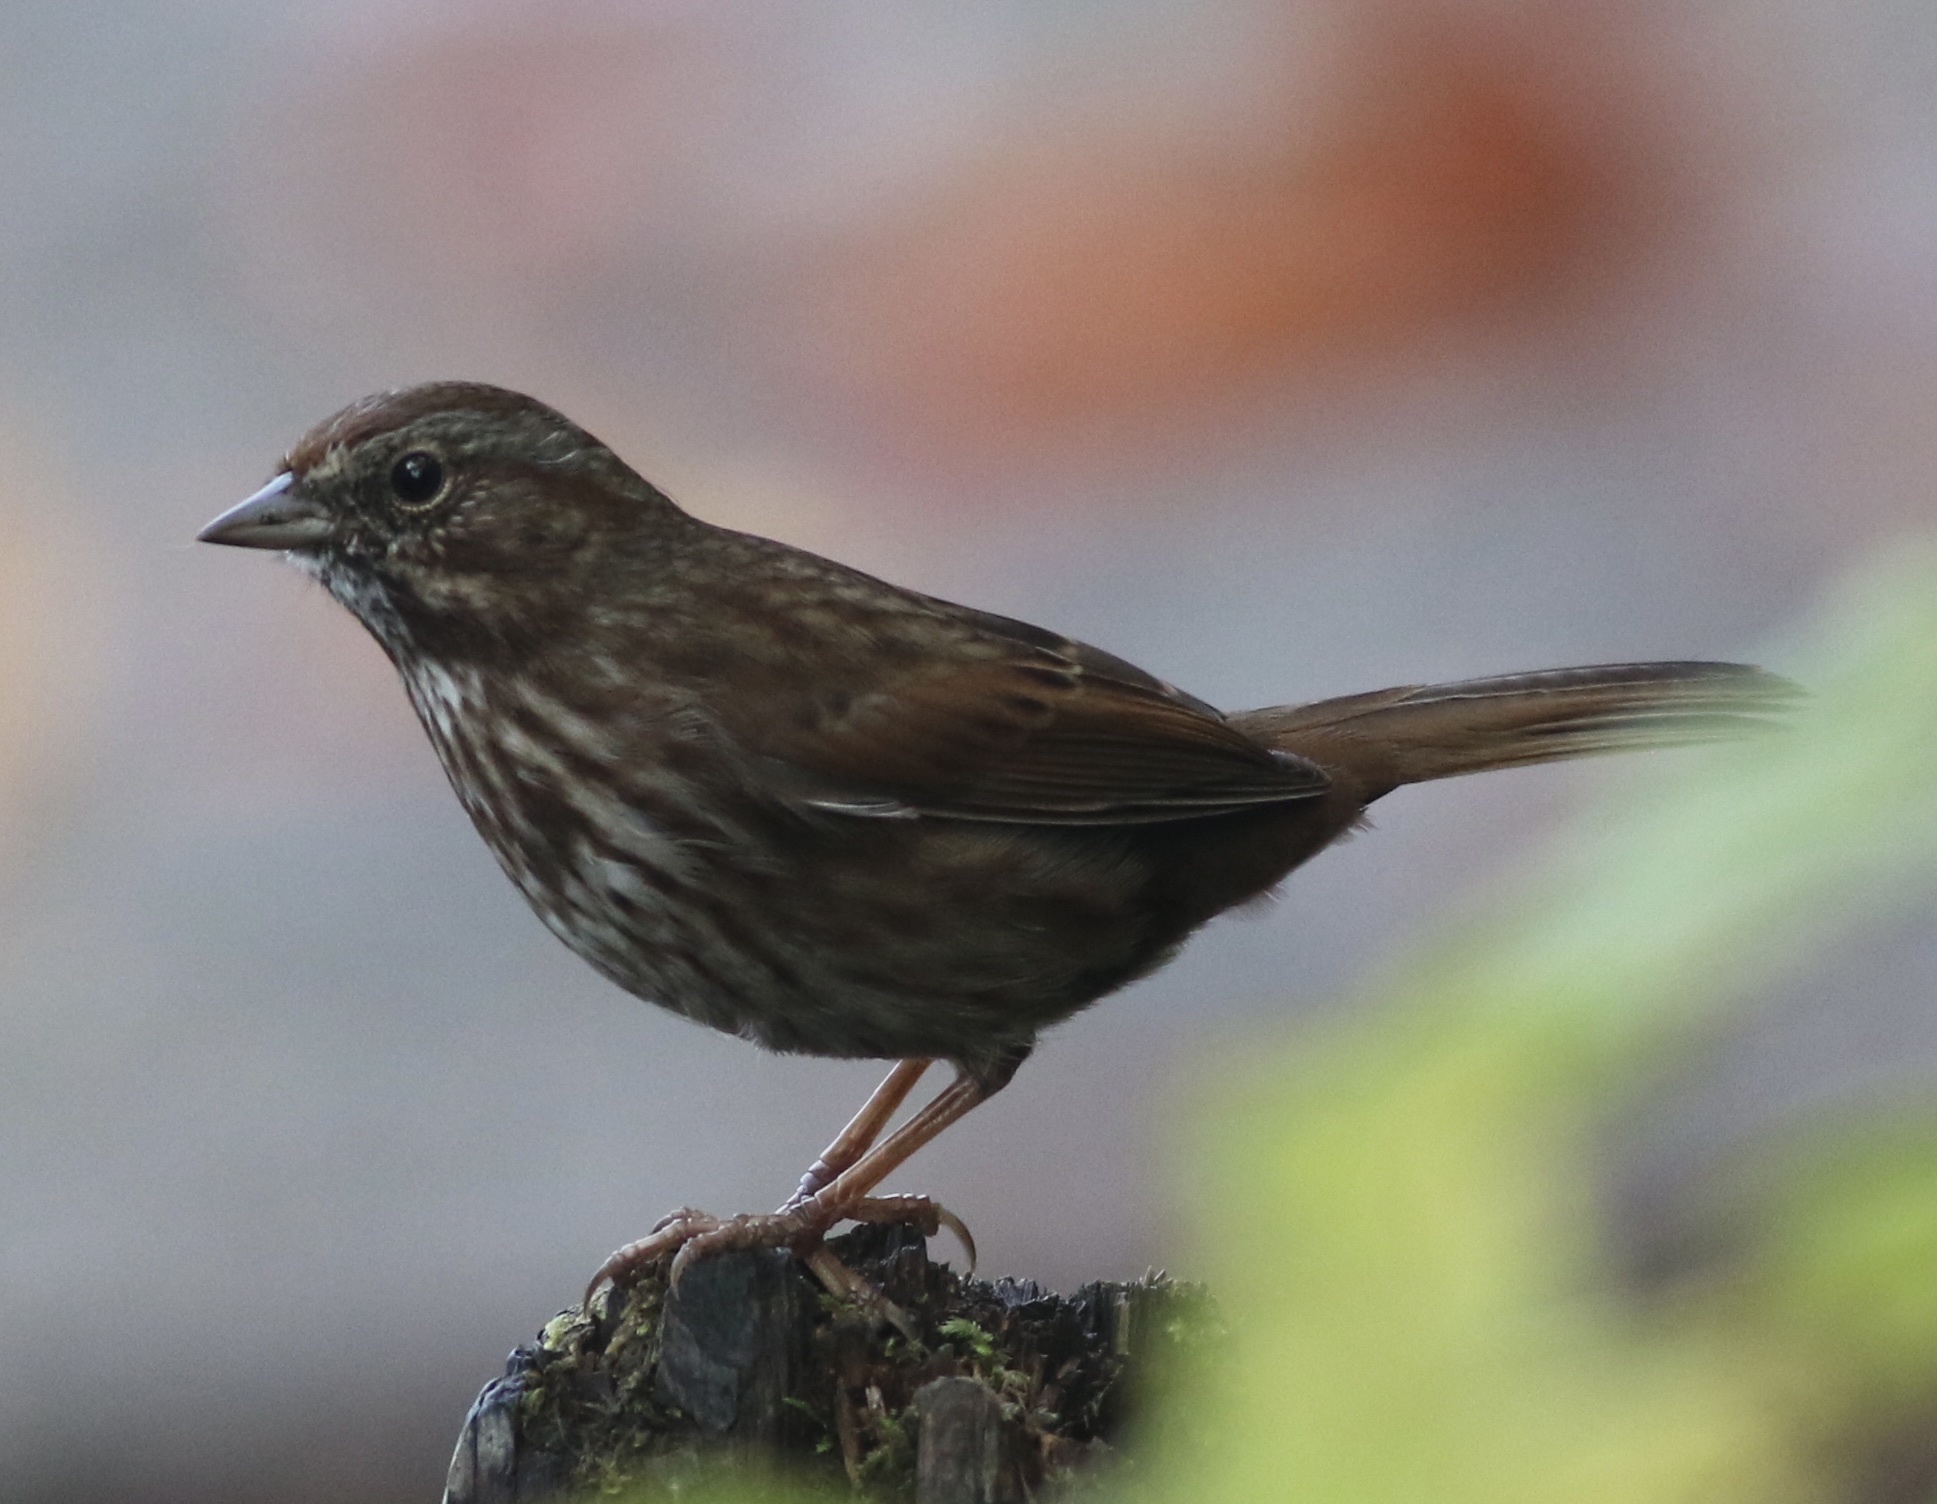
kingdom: Animalia
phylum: Chordata
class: Aves
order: Passeriformes
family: Passerellidae
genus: Melospiza
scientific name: Melospiza melodia
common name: Song sparrow
